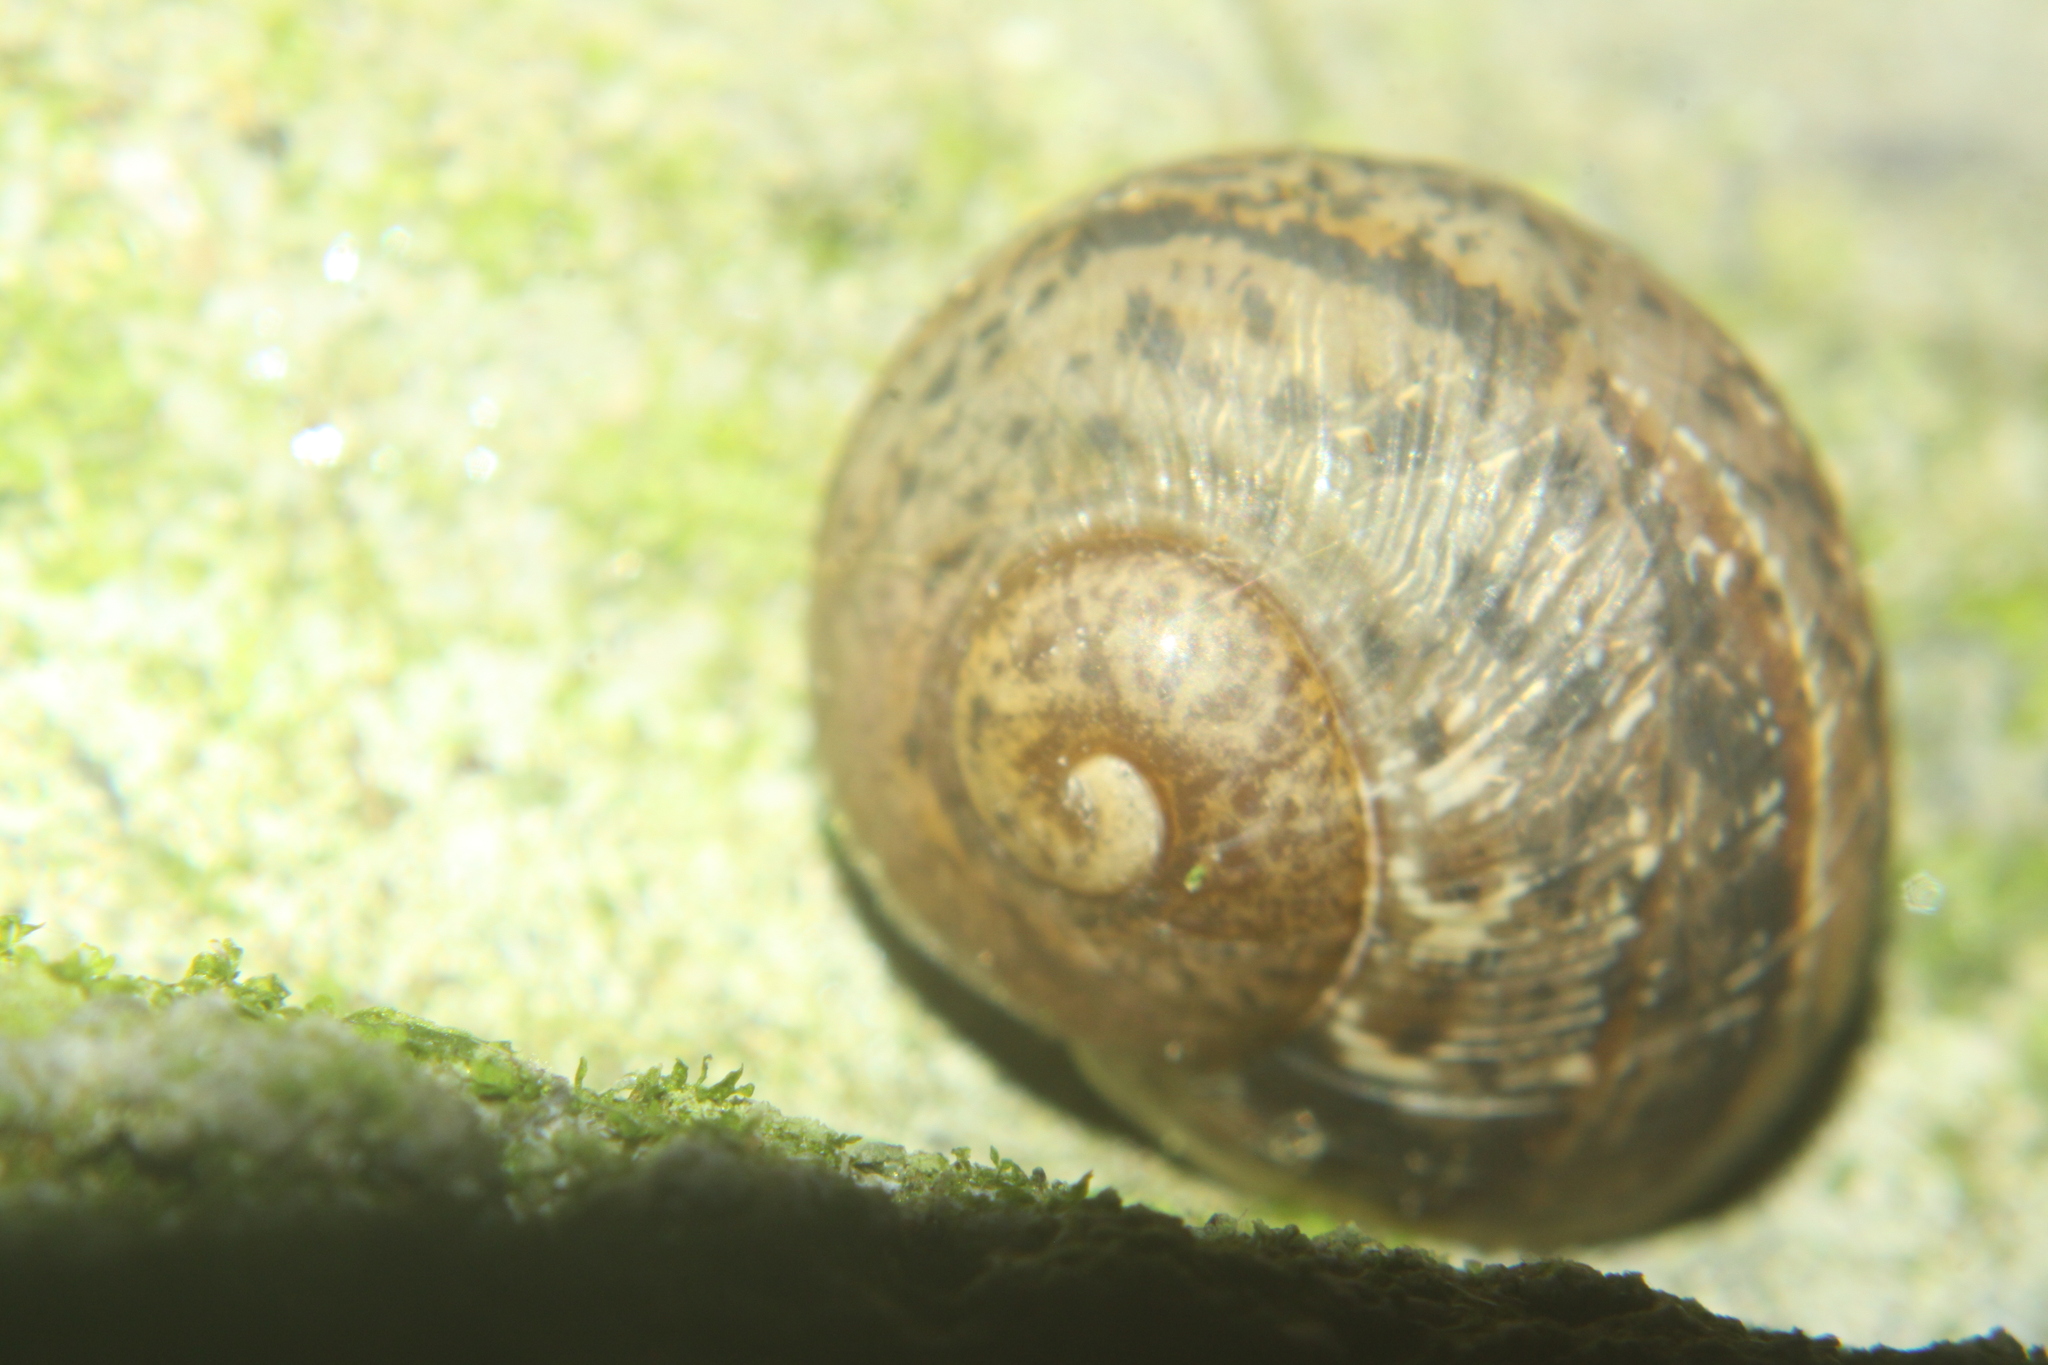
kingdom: Animalia
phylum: Mollusca
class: Gastropoda
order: Stylommatophora
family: Helicidae
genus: Cornu
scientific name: Cornu aspersum
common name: Brown garden snail
